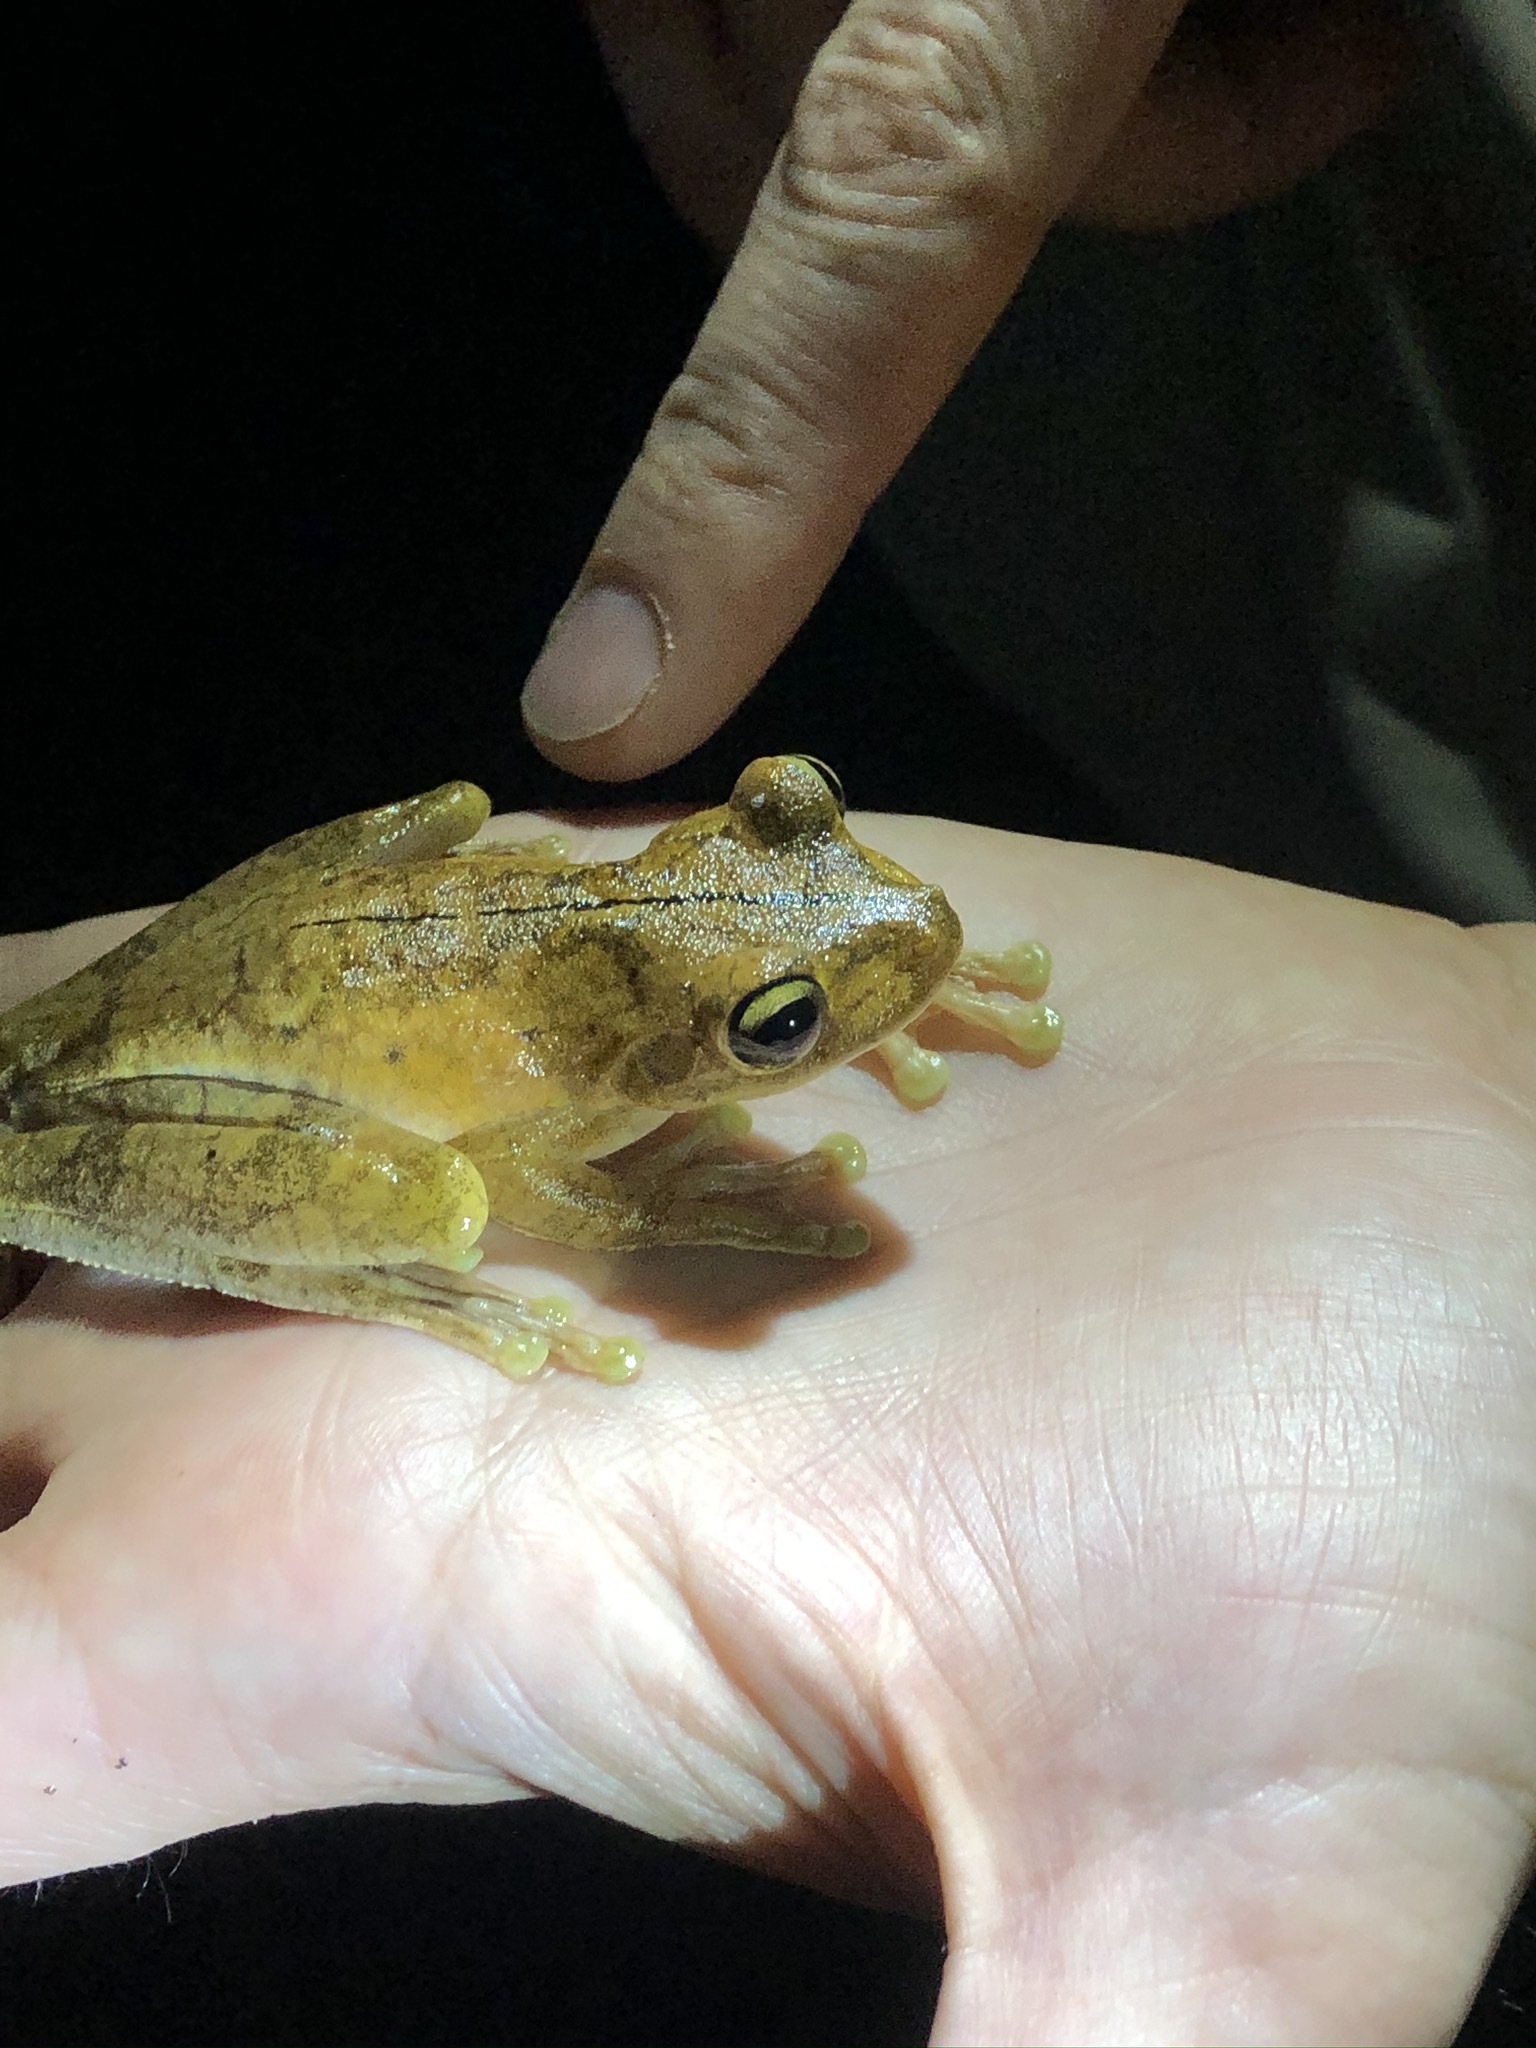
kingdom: Animalia
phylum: Chordata
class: Amphibia
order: Anura
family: Hylidae
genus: Boana
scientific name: Boana rosenbergi
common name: Rosenberg´s gladiator treefrog
